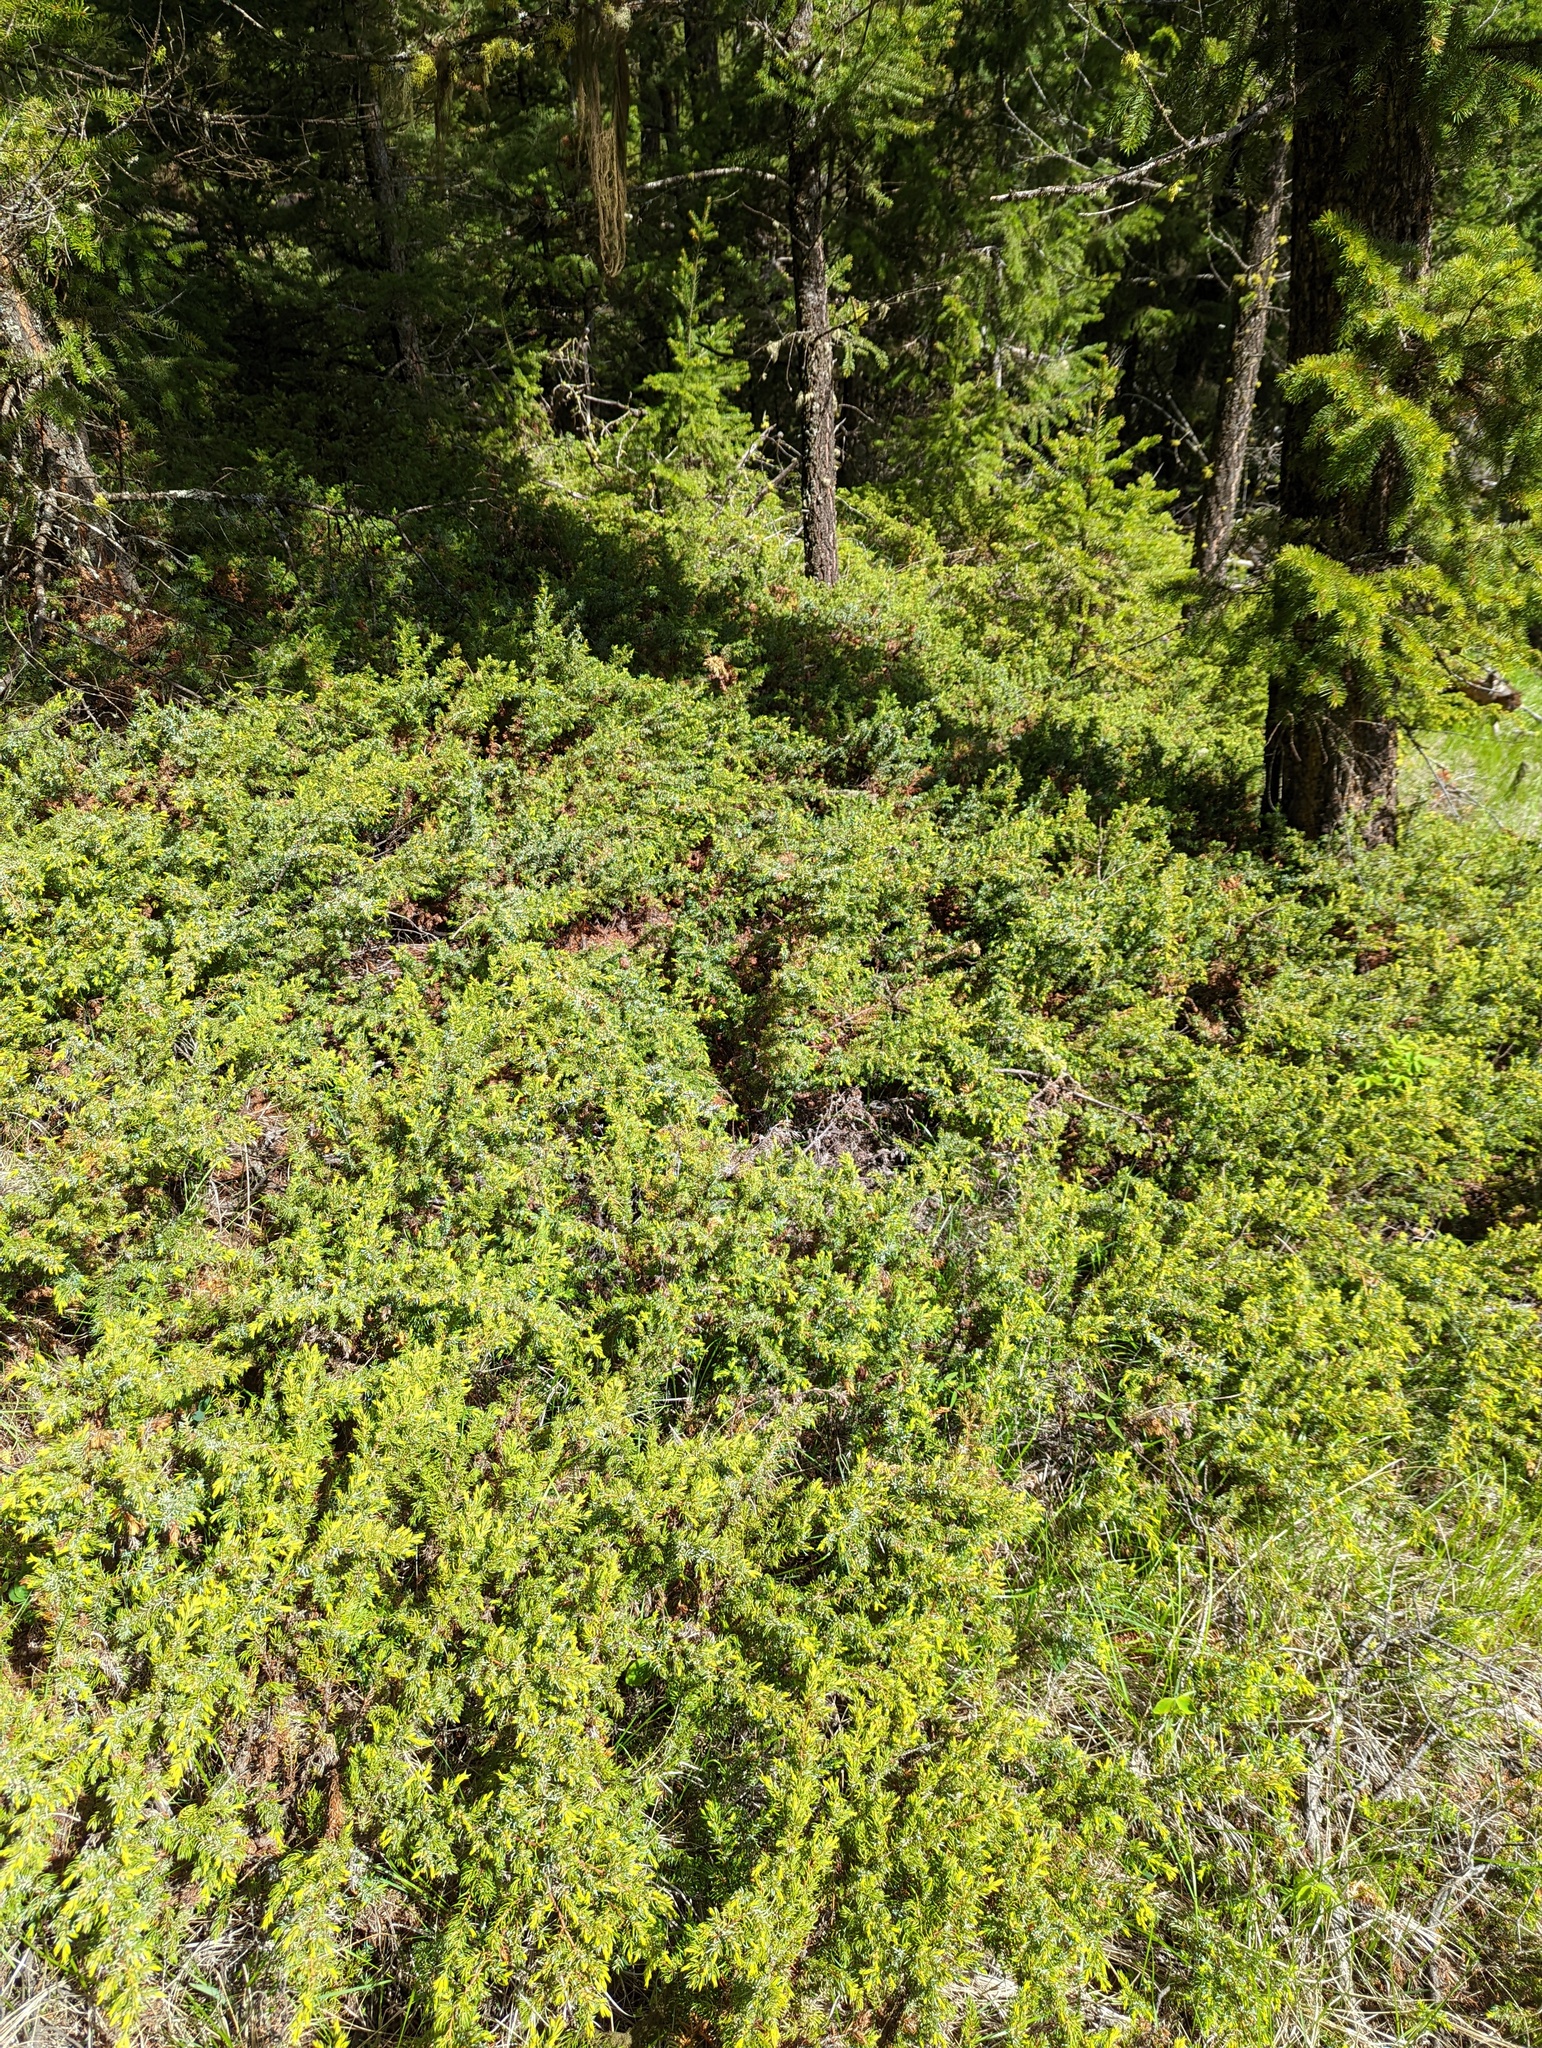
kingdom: Plantae
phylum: Tracheophyta
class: Pinopsida
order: Pinales
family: Cupressaceae
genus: Juniperus
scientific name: Juniperus communis
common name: Common juniper
